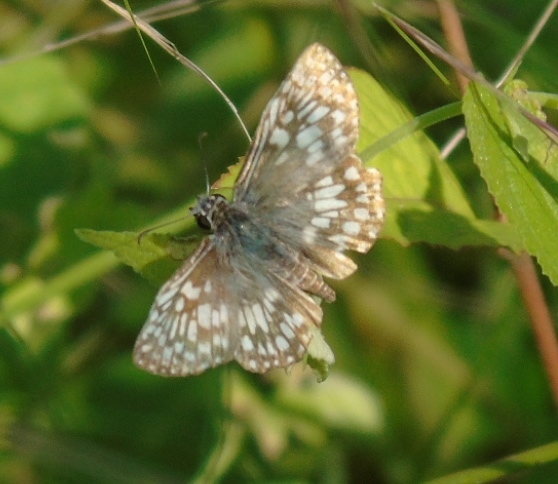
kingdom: Animalia
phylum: Arthropoda
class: Insecta
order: Lepidoptera
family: Hesperiidae
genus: Burnsius
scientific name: Burnsius philetas
